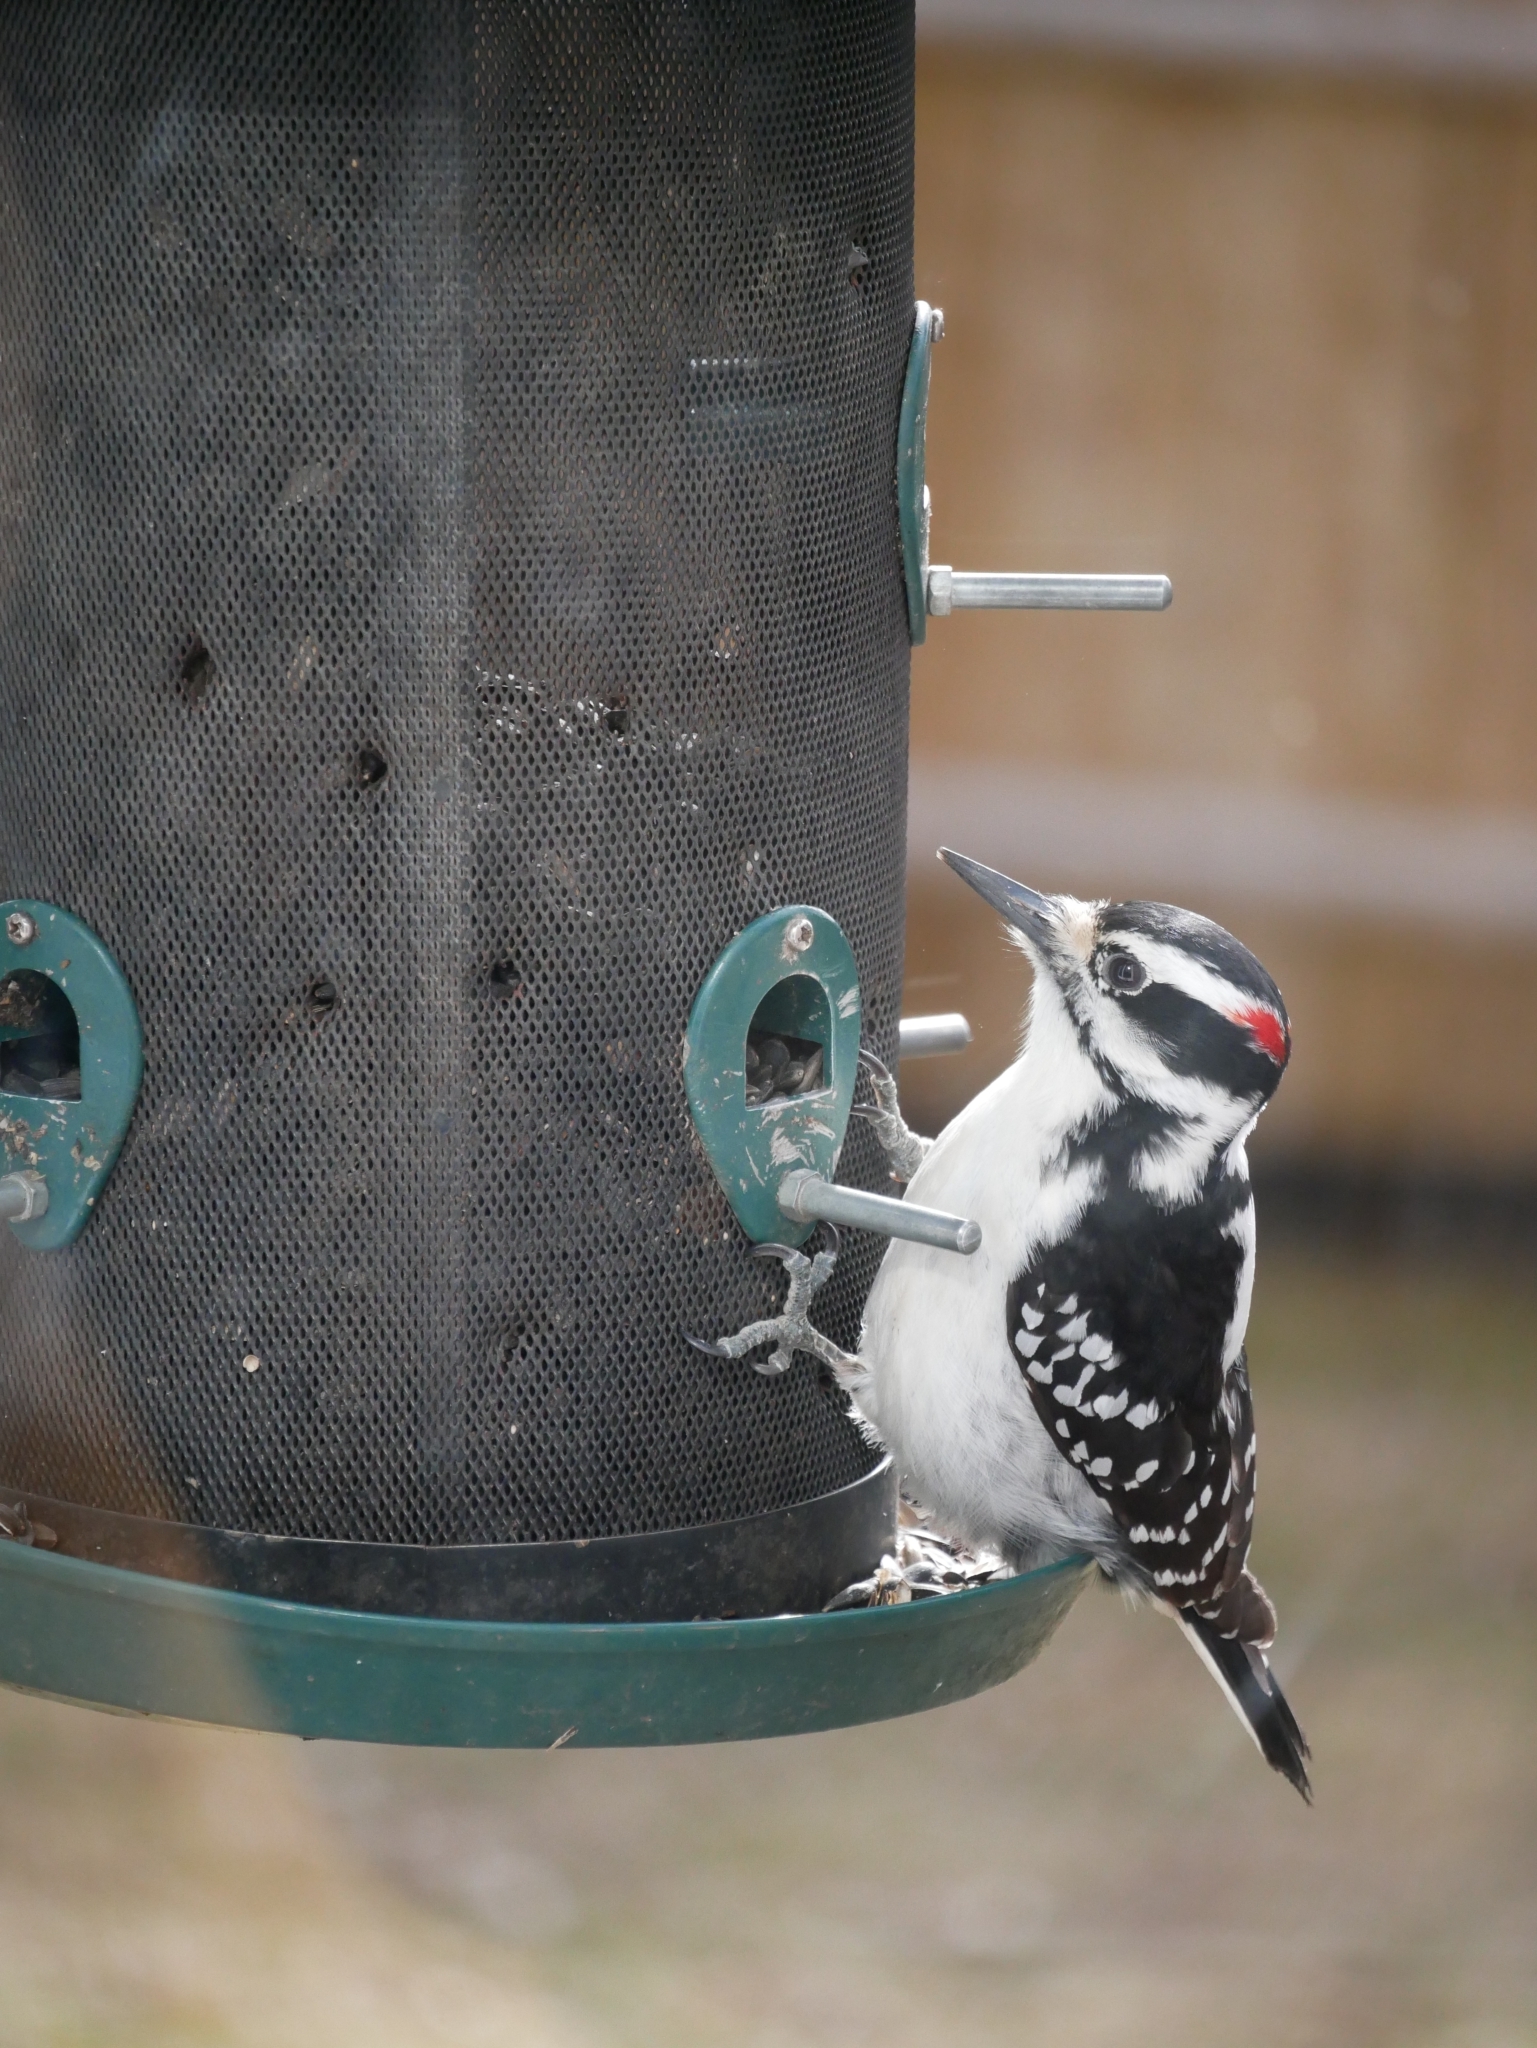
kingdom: Animalia
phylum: Chordata
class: Aves
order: Piciformes
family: Picidae
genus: Leuconotopicus
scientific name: Leuconotopicus villosus
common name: Hairy woodpecker
